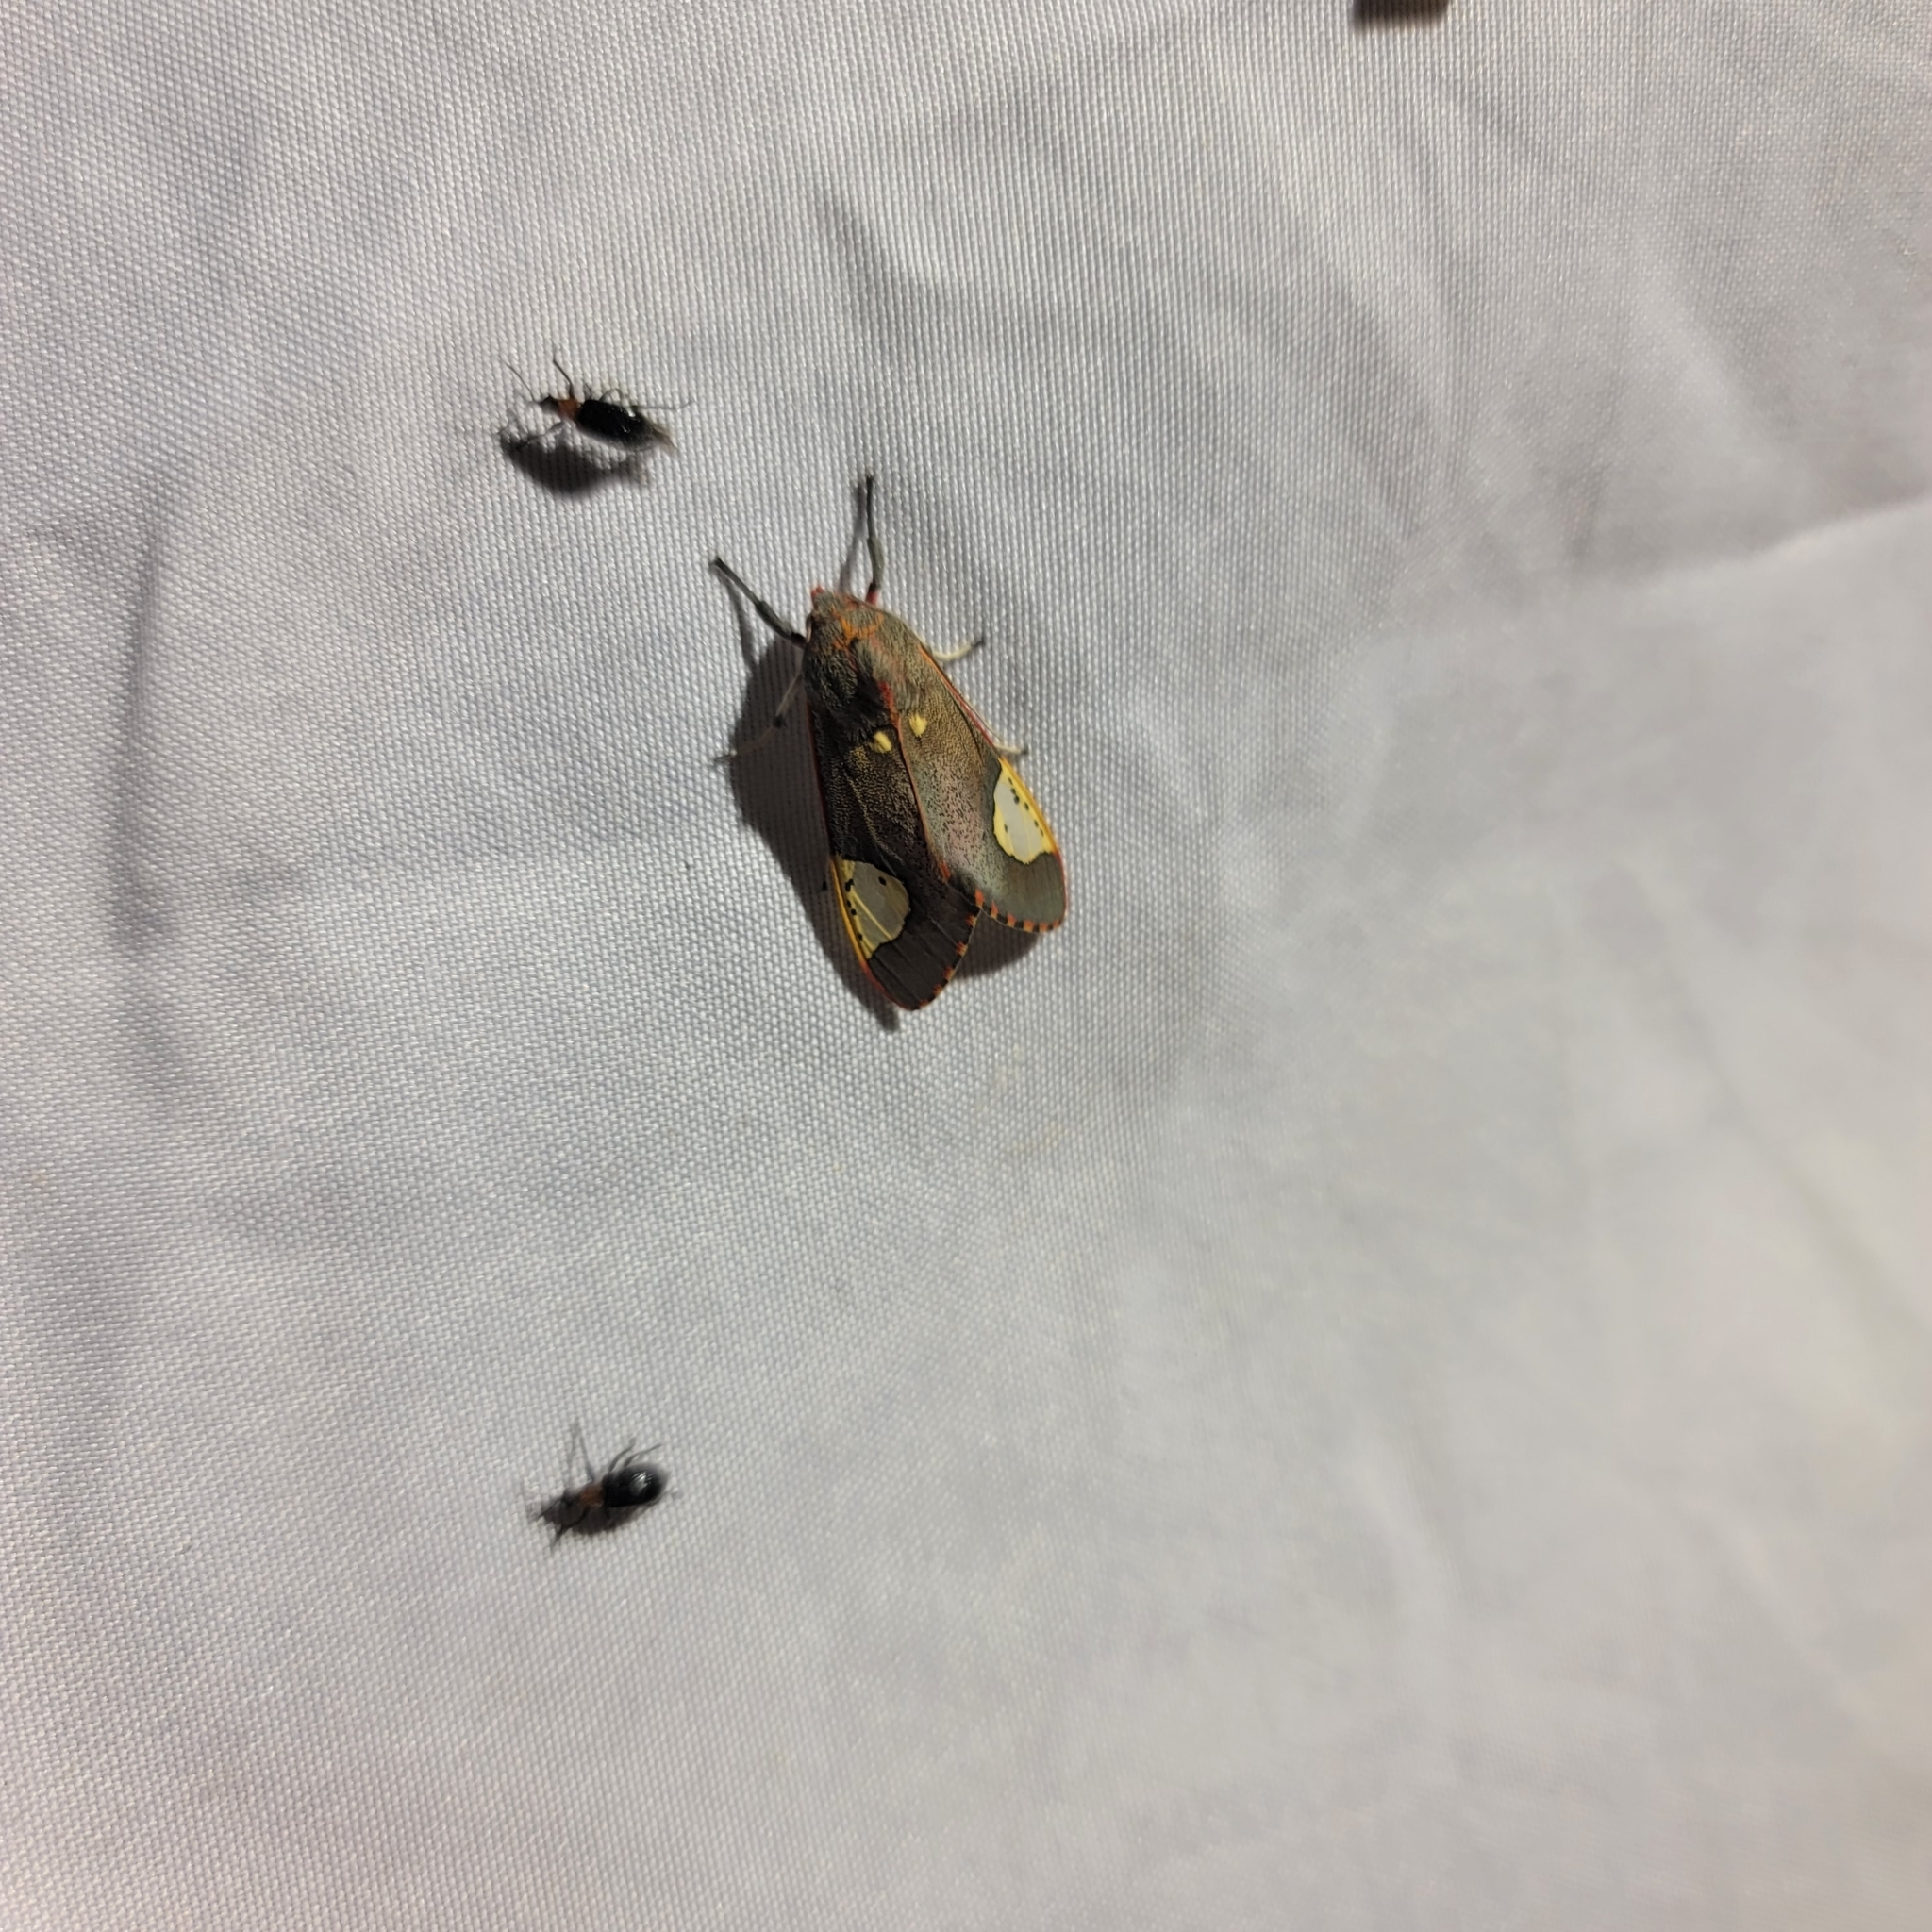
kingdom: Animalia
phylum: Arthropoda
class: Insecta
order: Lepidoptera
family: Erebidae
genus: Bertholdia
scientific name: Bertholdia trigona
